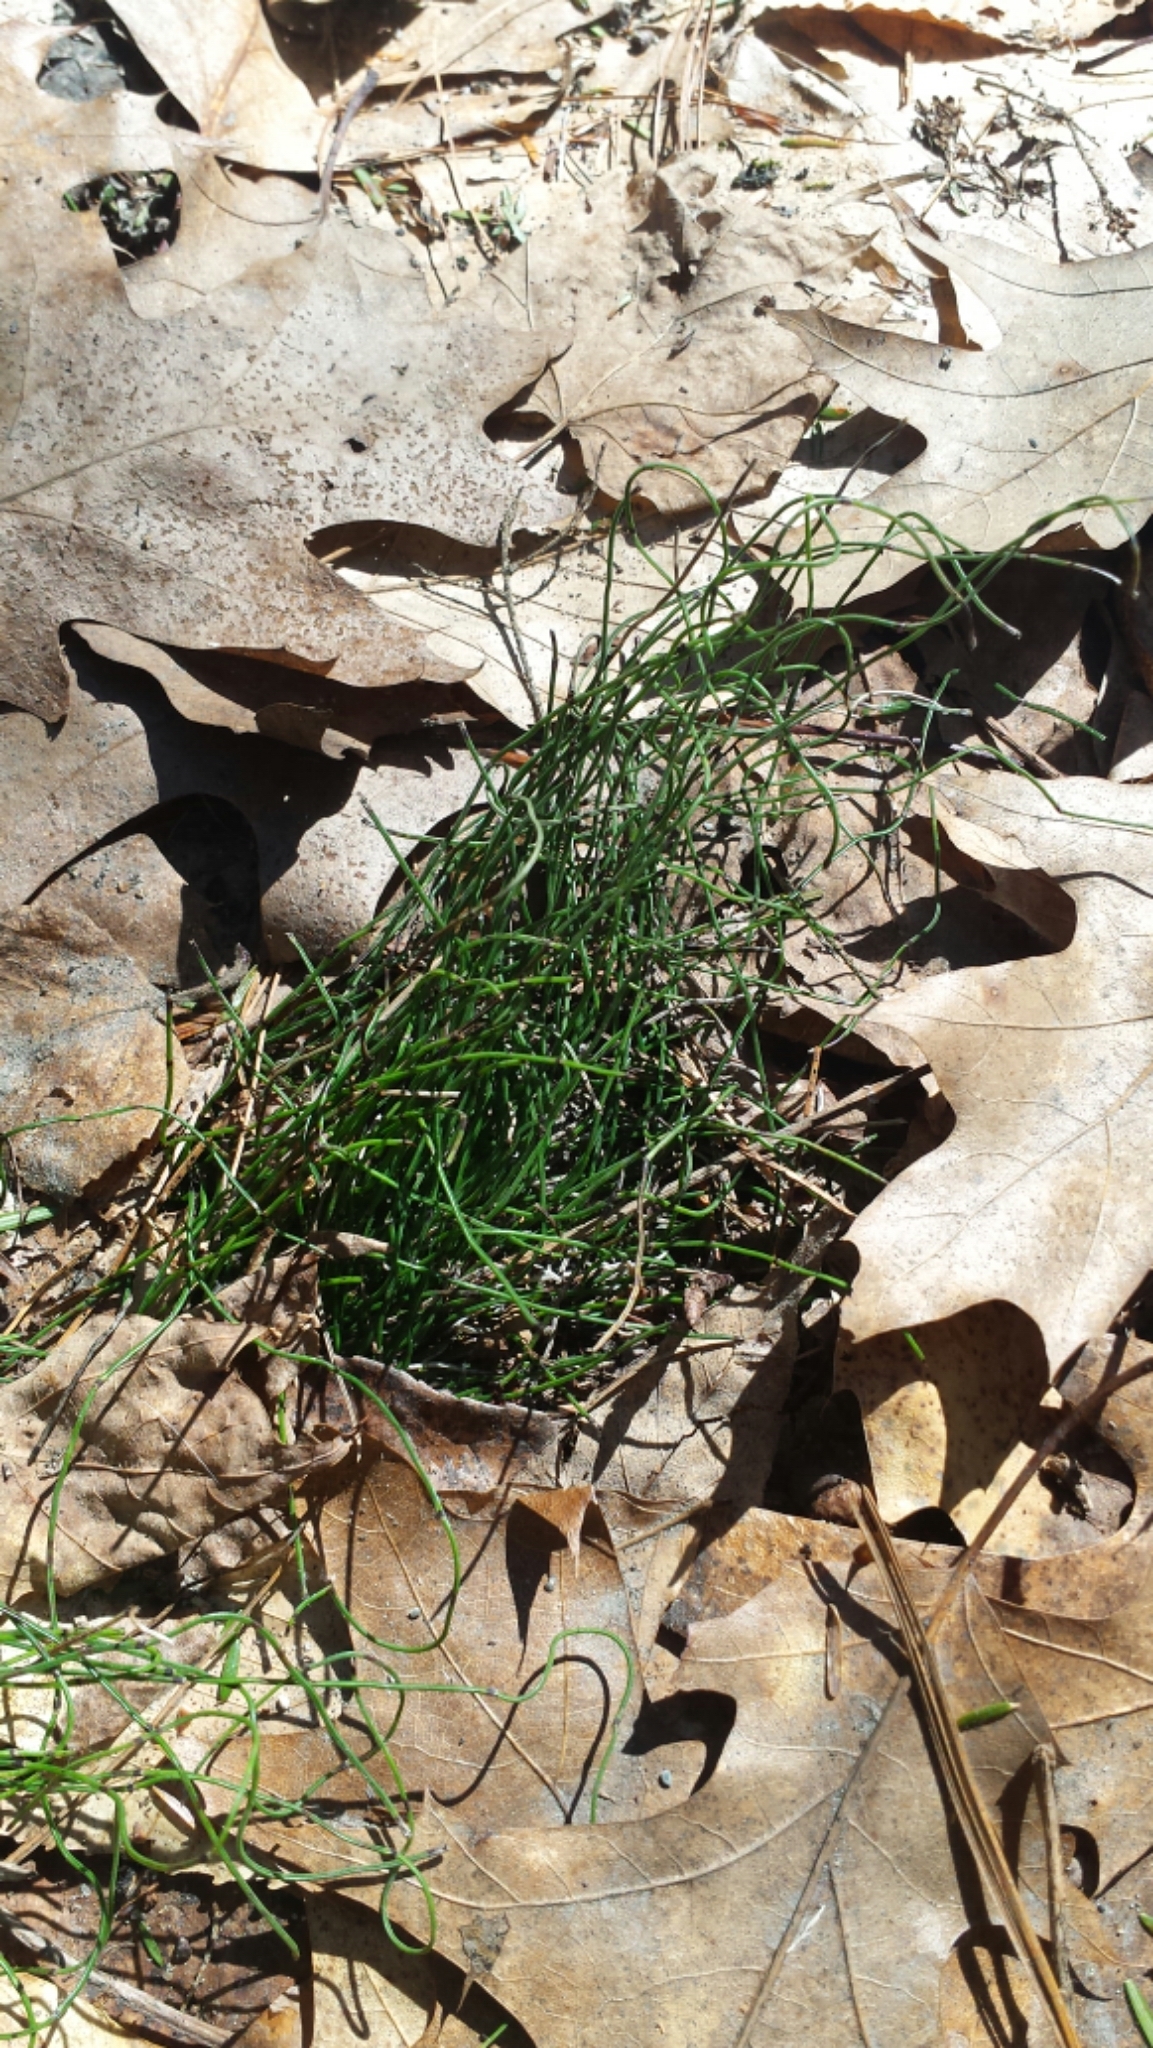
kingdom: Plantae
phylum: Tracheophyta
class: Polypodiopsida
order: Equisetales
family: Equisetaceae
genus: Equisetum
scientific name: Equisetum scirpoides
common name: Delicate horsetail
